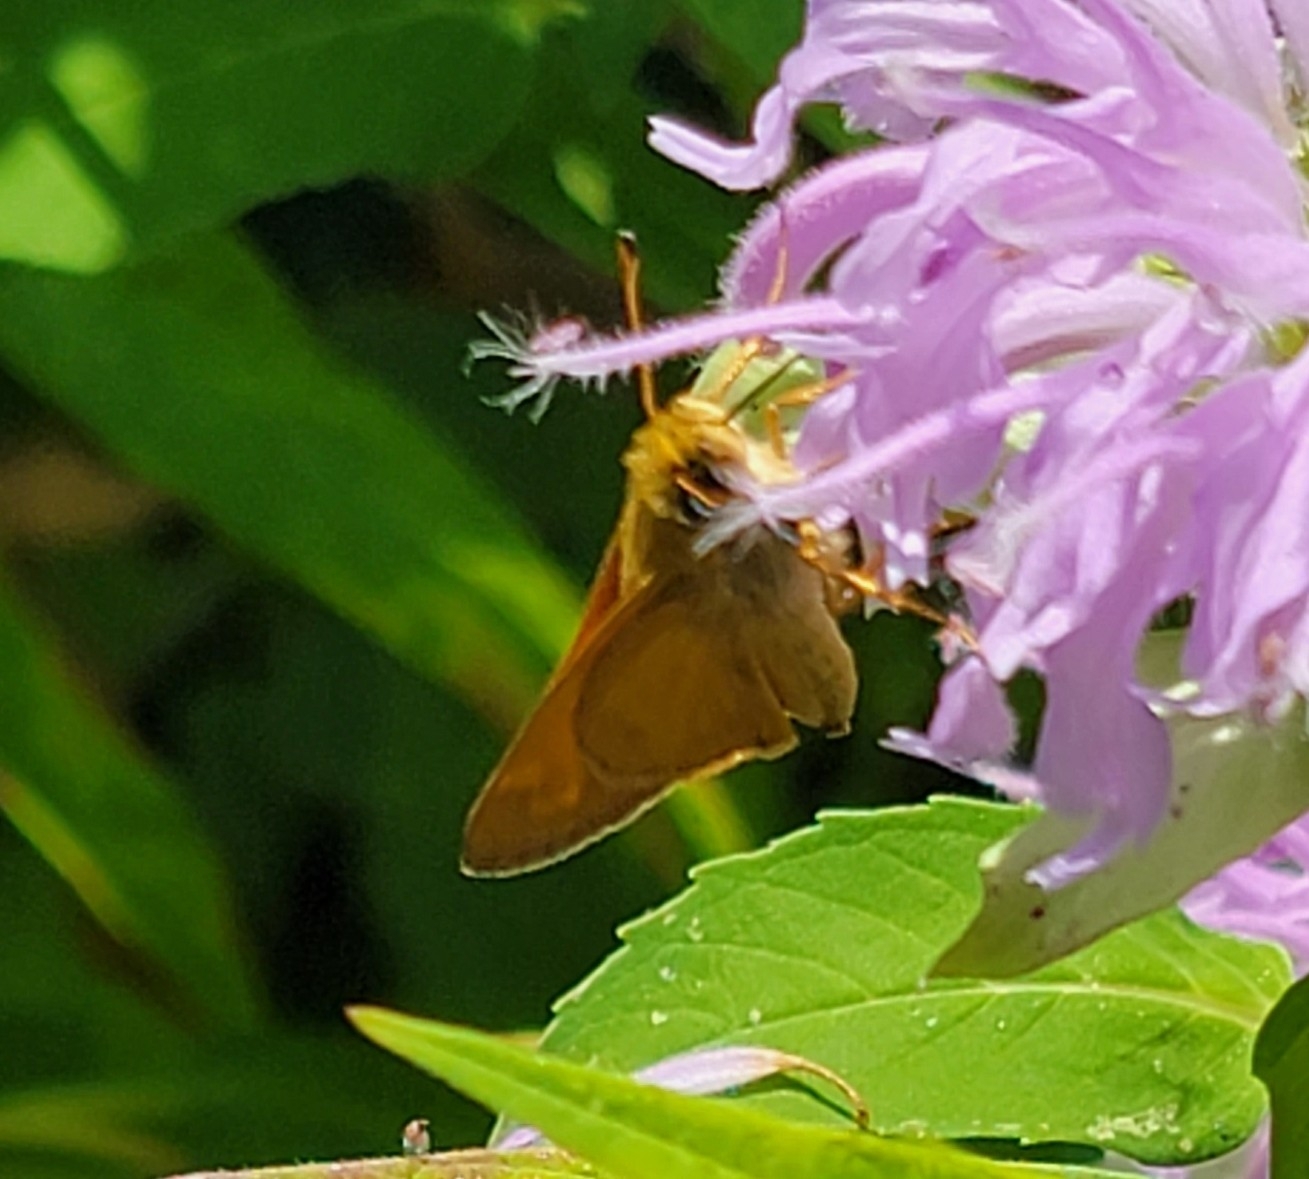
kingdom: Animalia
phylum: Arthropoda
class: Insecta
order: Lepidoptera
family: Hesperiidae
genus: Atalopedes
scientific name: Atalopedes
